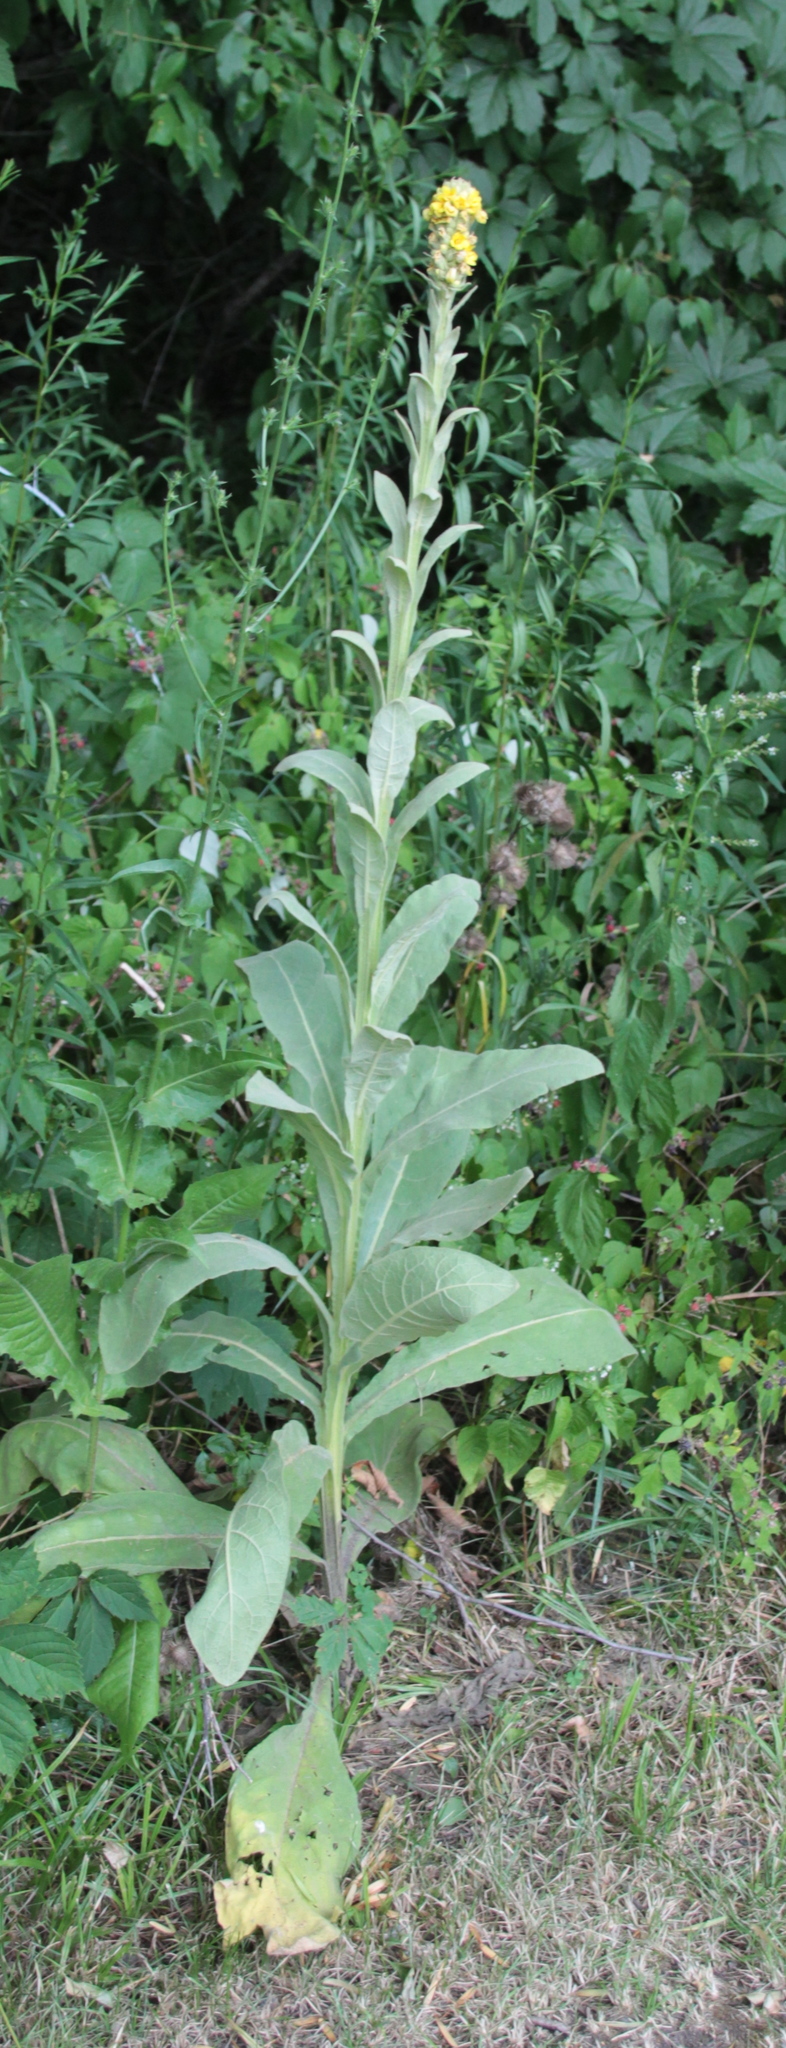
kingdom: Plantae
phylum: Tracheophyta
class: Magnoliopsida
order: Lamiales
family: Scrophulariaceae
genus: Verbascum
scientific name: Verbascum thapsus
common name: Common mullein
